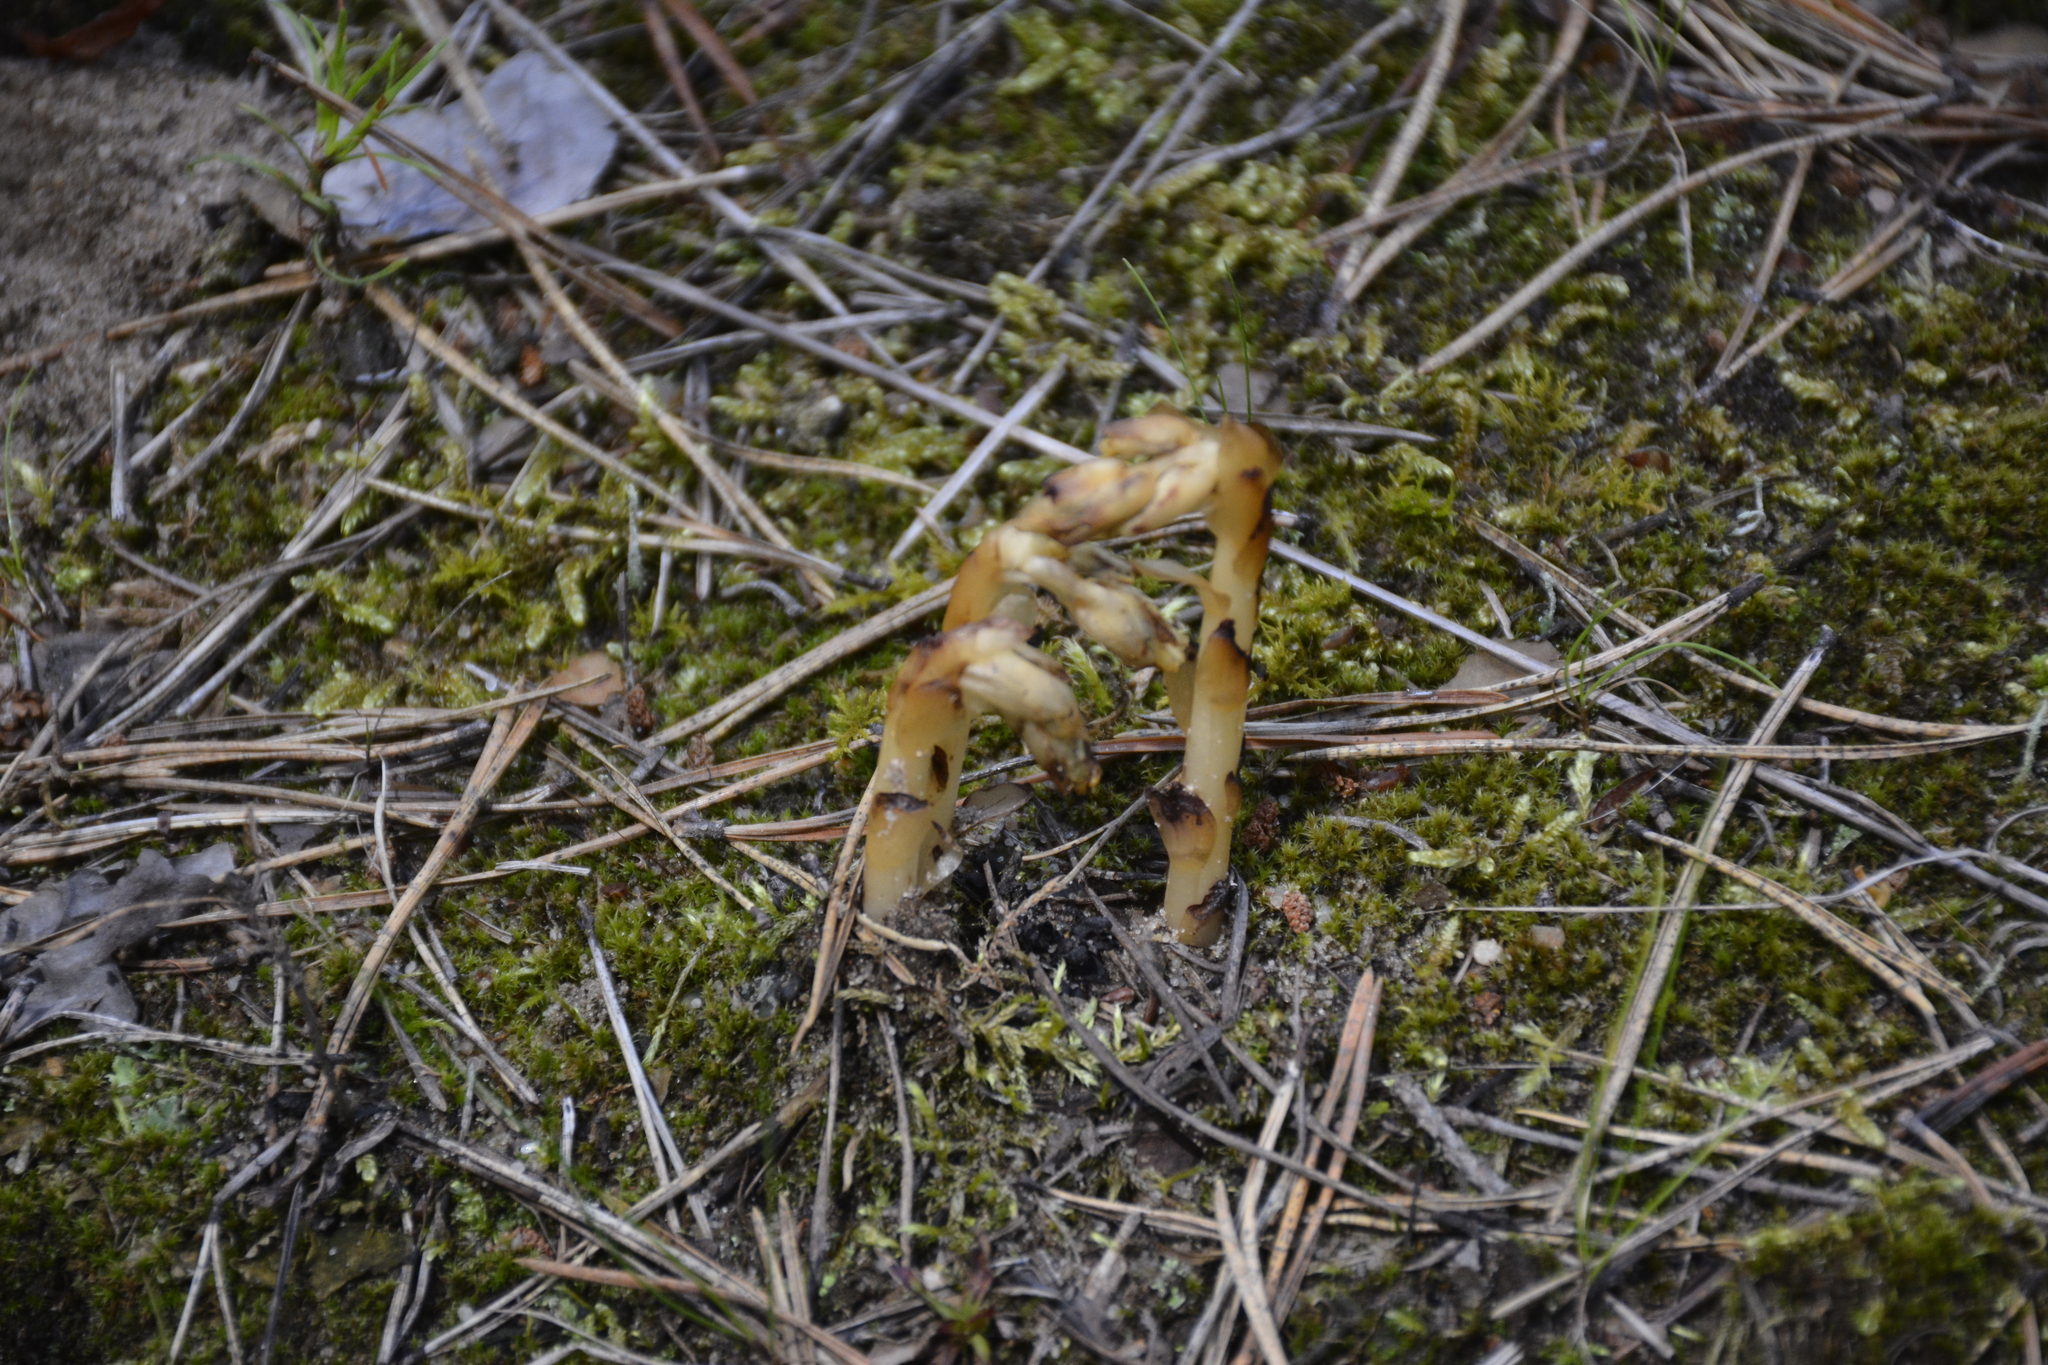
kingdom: Plantae
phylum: Tracheophyta
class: Magnoliopsida
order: Ericales
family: Ericaceae
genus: Hypopitys
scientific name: Hypopitys monotropa
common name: Yellow bird's-nest
